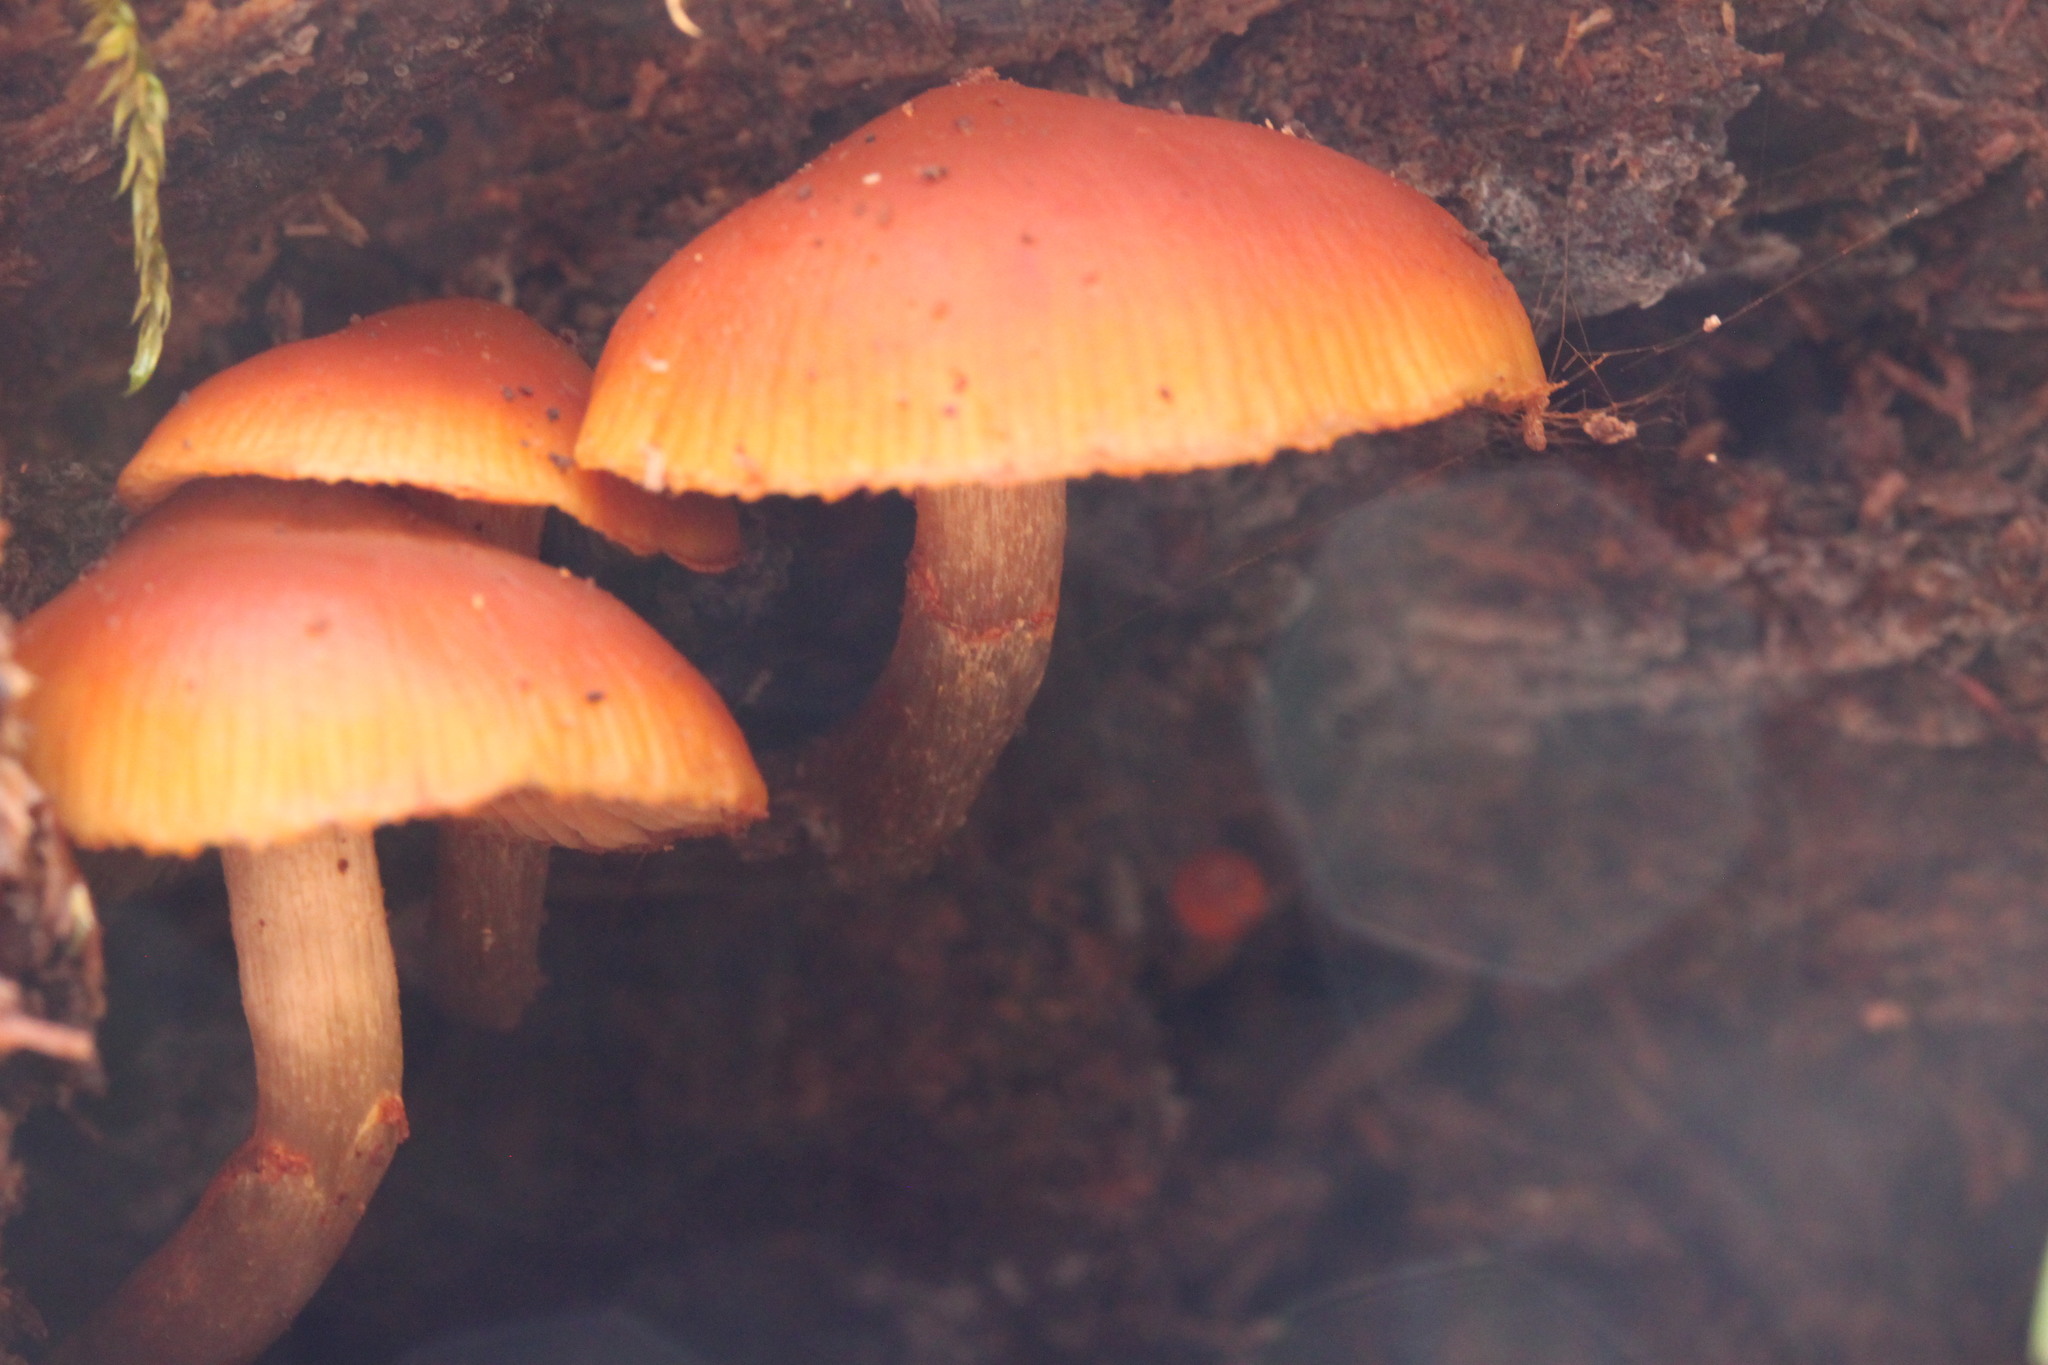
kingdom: Fungi
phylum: Basidiomycota
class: Agaricomycetes
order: Agaricales
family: Hymenogastraceae
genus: Galerina
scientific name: Galerina marginata
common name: Funeral bell
